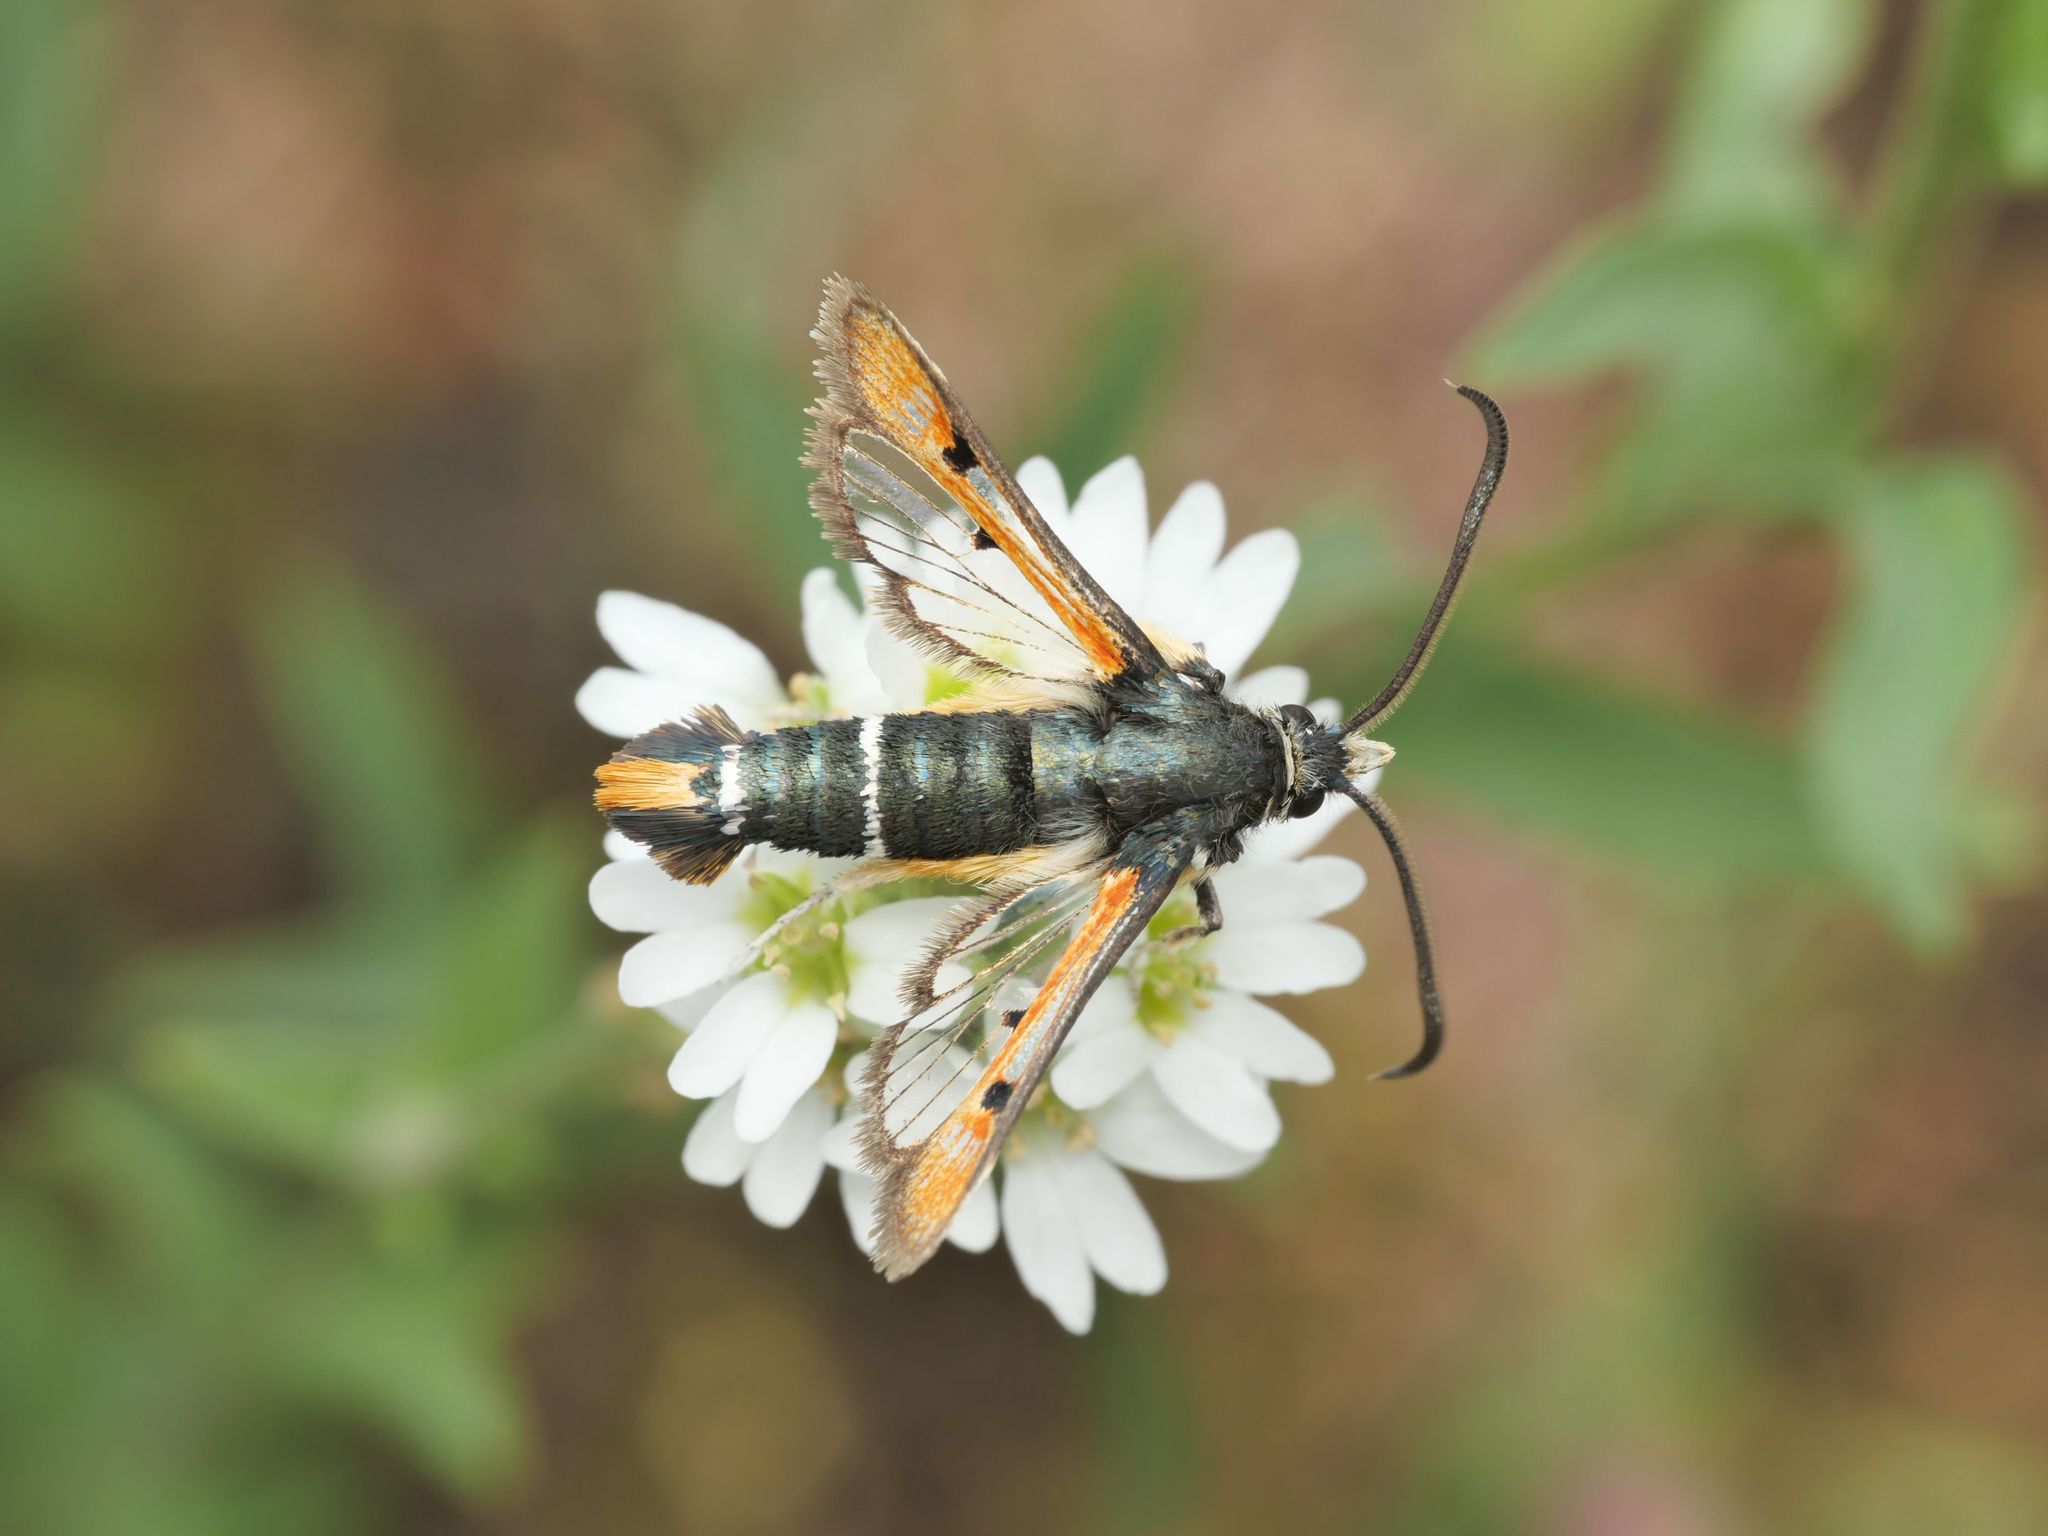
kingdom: Animalia
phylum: Arthropoda
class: Insecta
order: Lepidoptera
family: Sesiidae
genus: Pyropteron
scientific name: Pyropteron chrysidiforme
